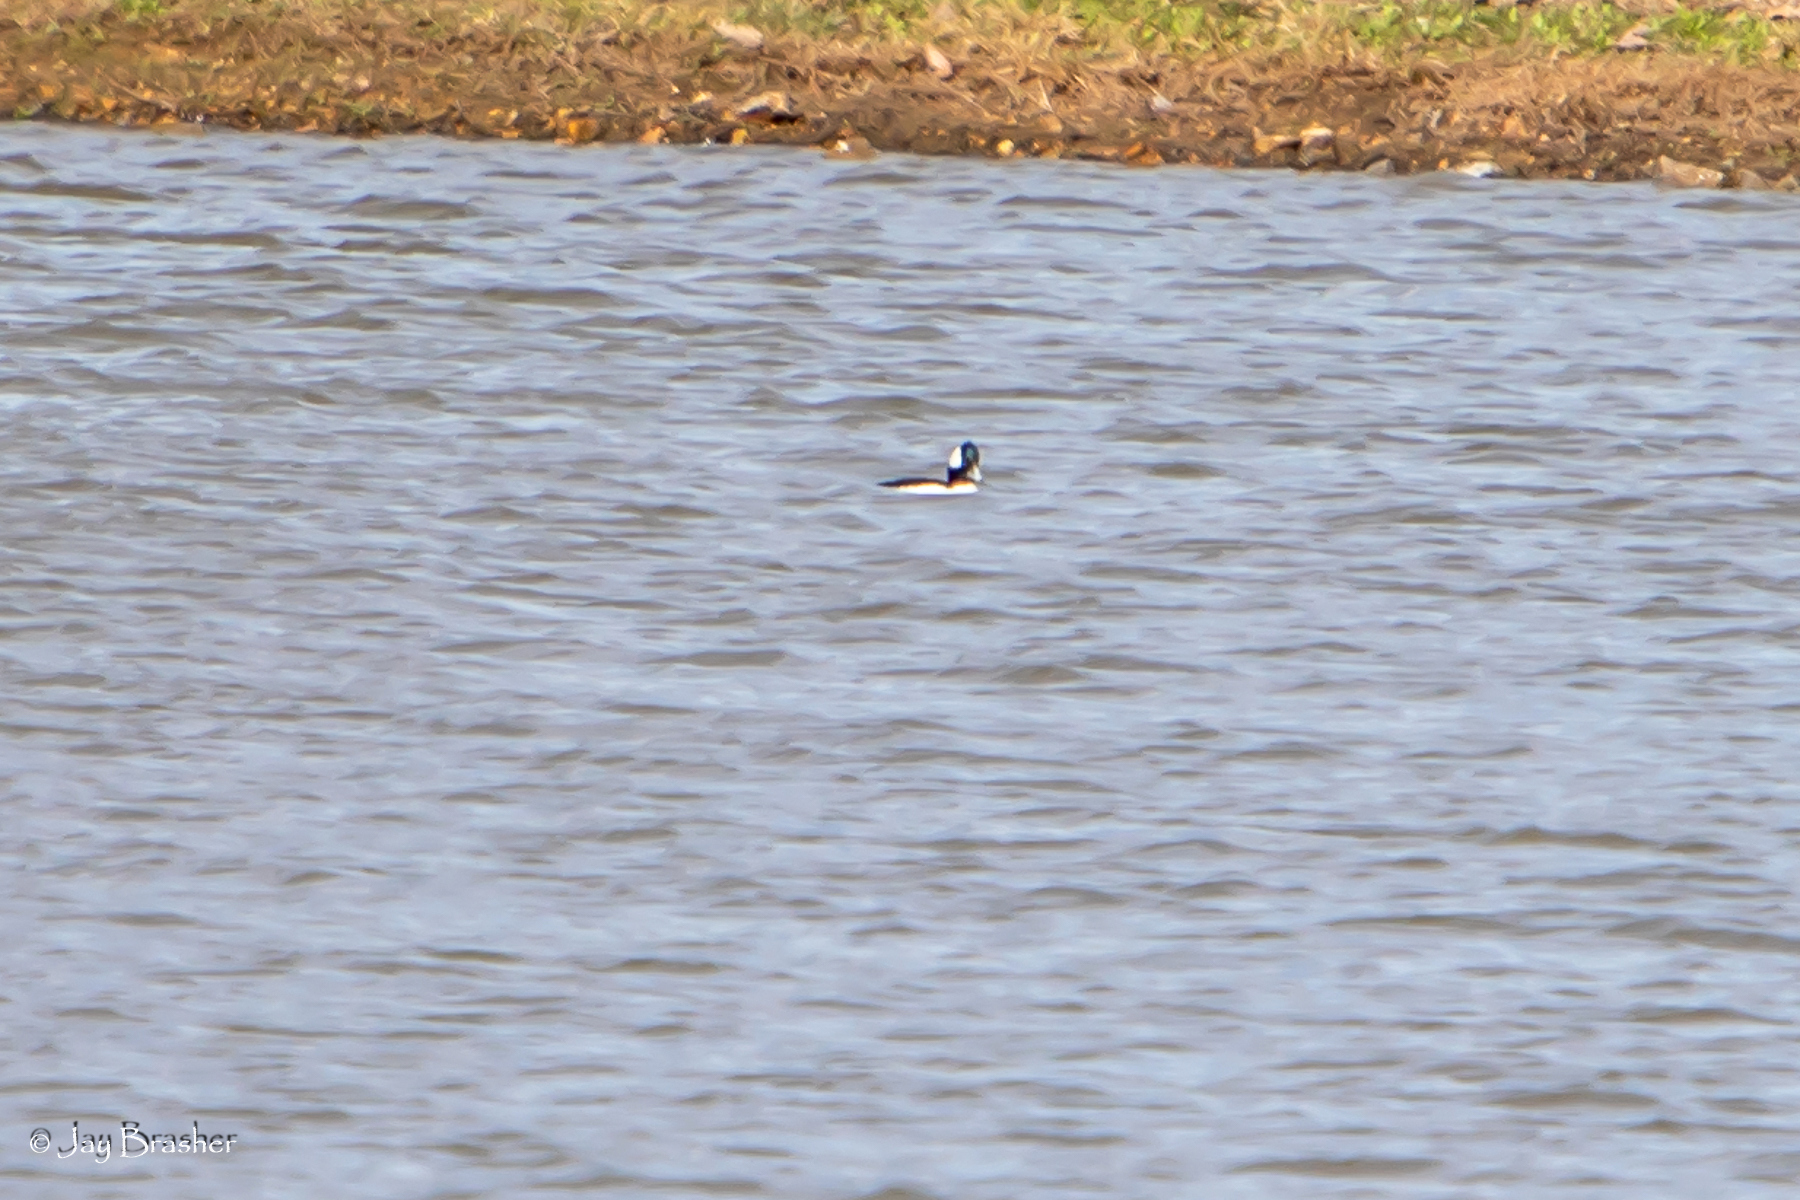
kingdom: Animalia
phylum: Chordata
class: Aves
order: Anseriformes
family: Anatidae
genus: Bucephala
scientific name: Bucephala albeola
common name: Bufflehead
